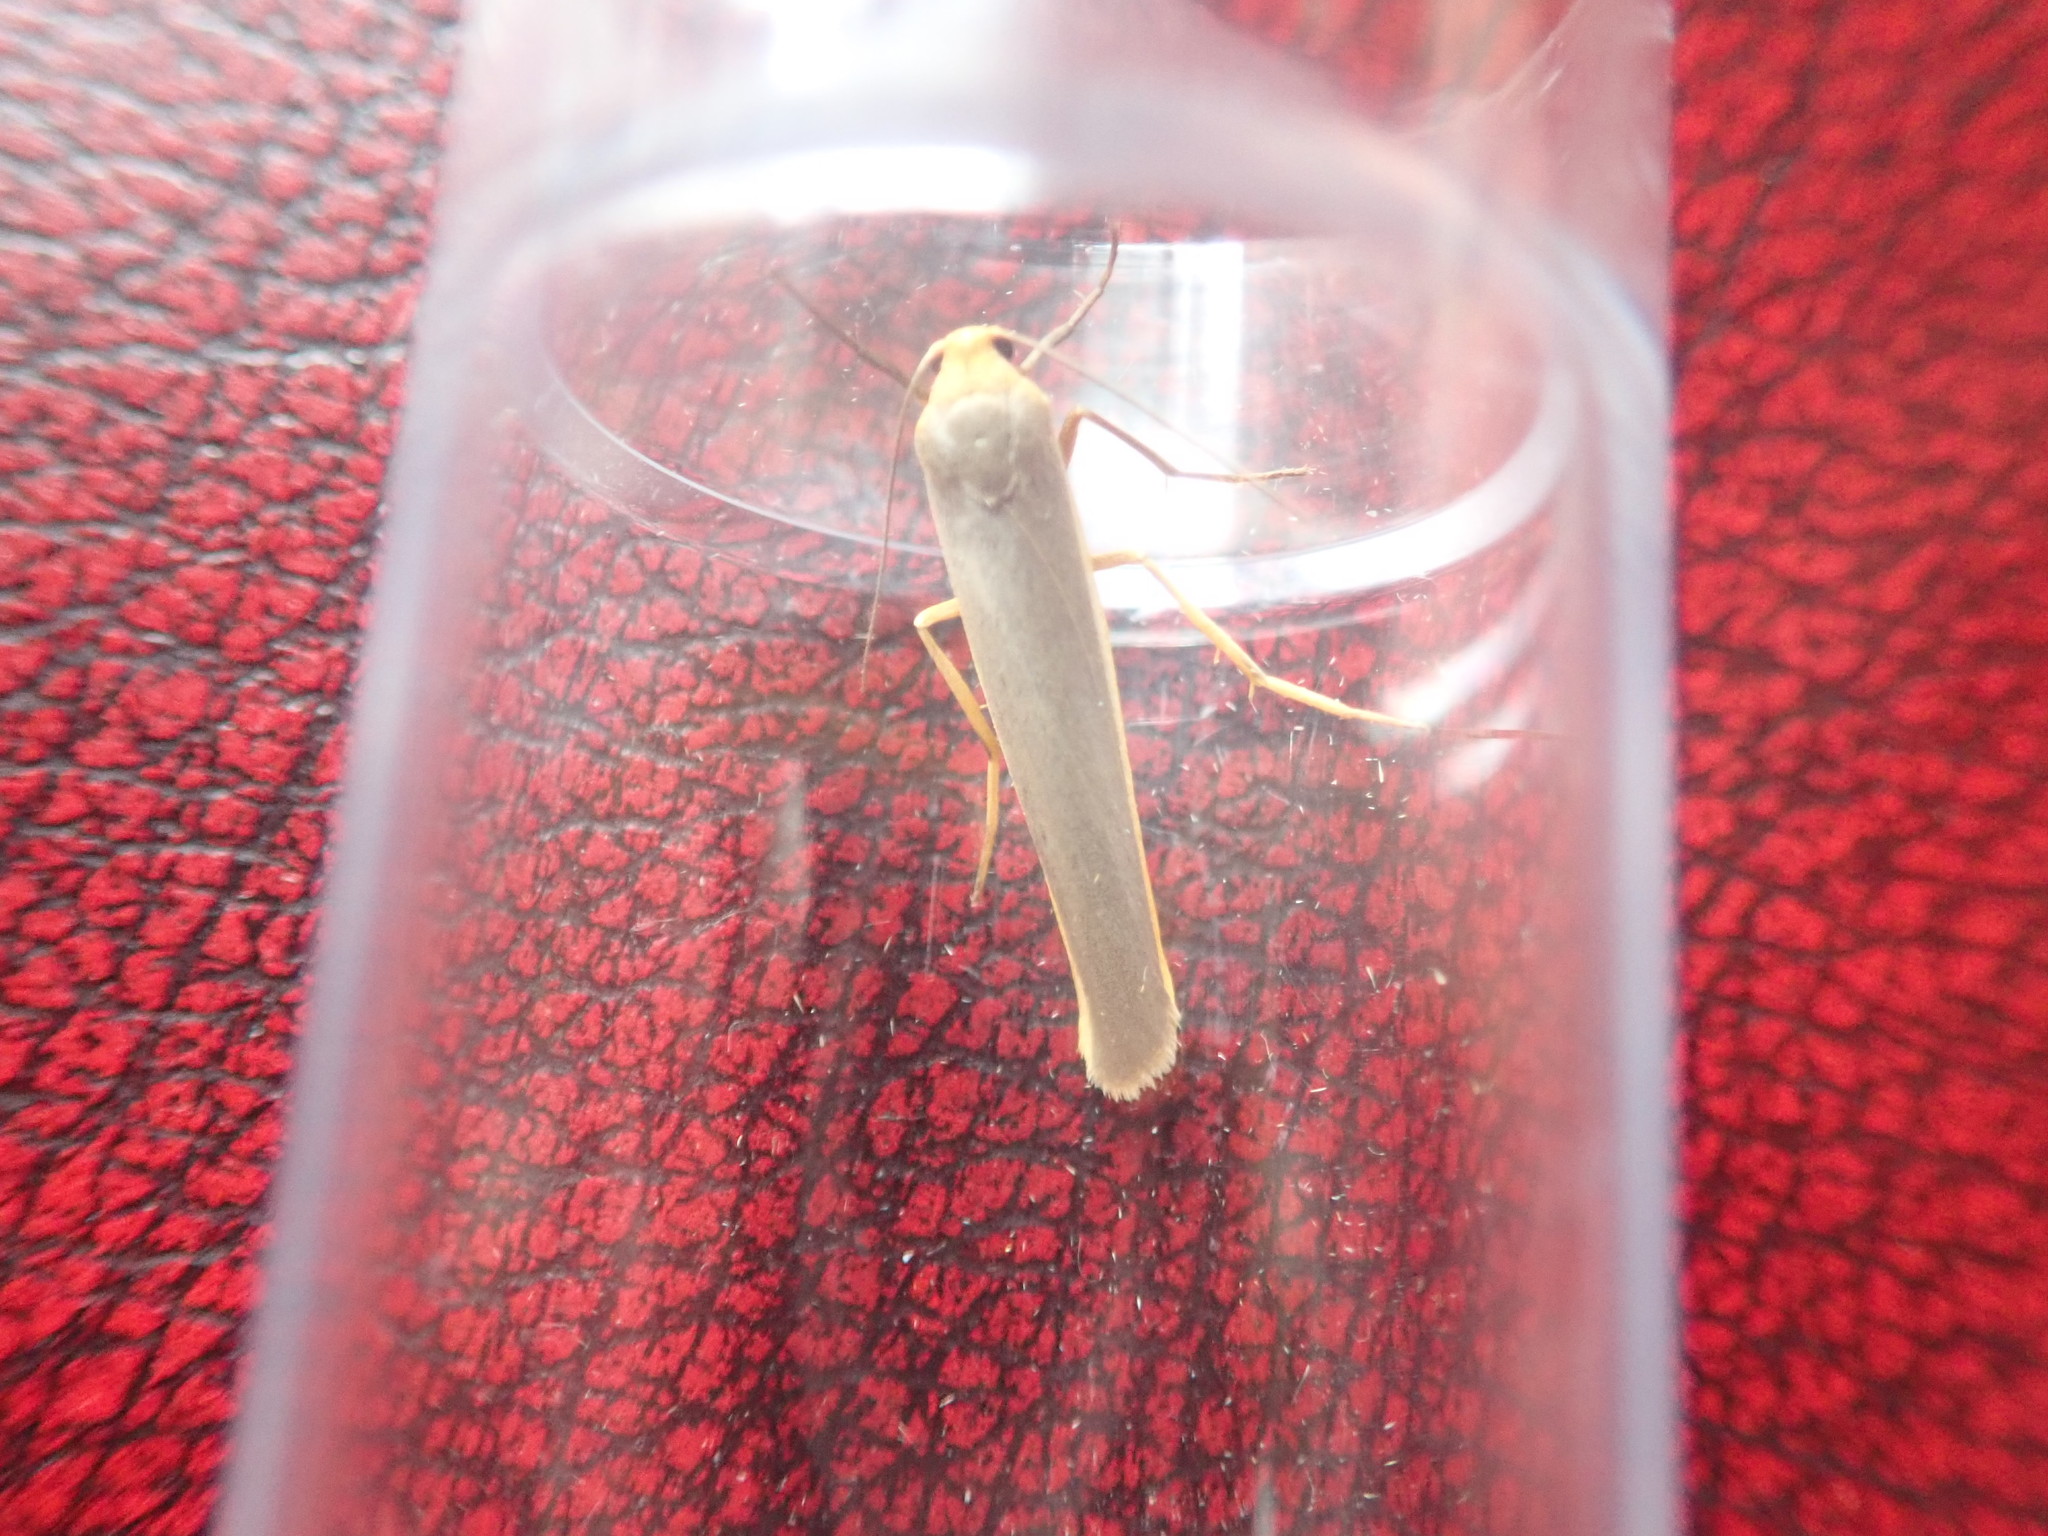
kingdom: Animalia
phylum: Arthropoda
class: Insecta
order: Lepidoptera
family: Erebidae
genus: Manulea
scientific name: Manulea complana
